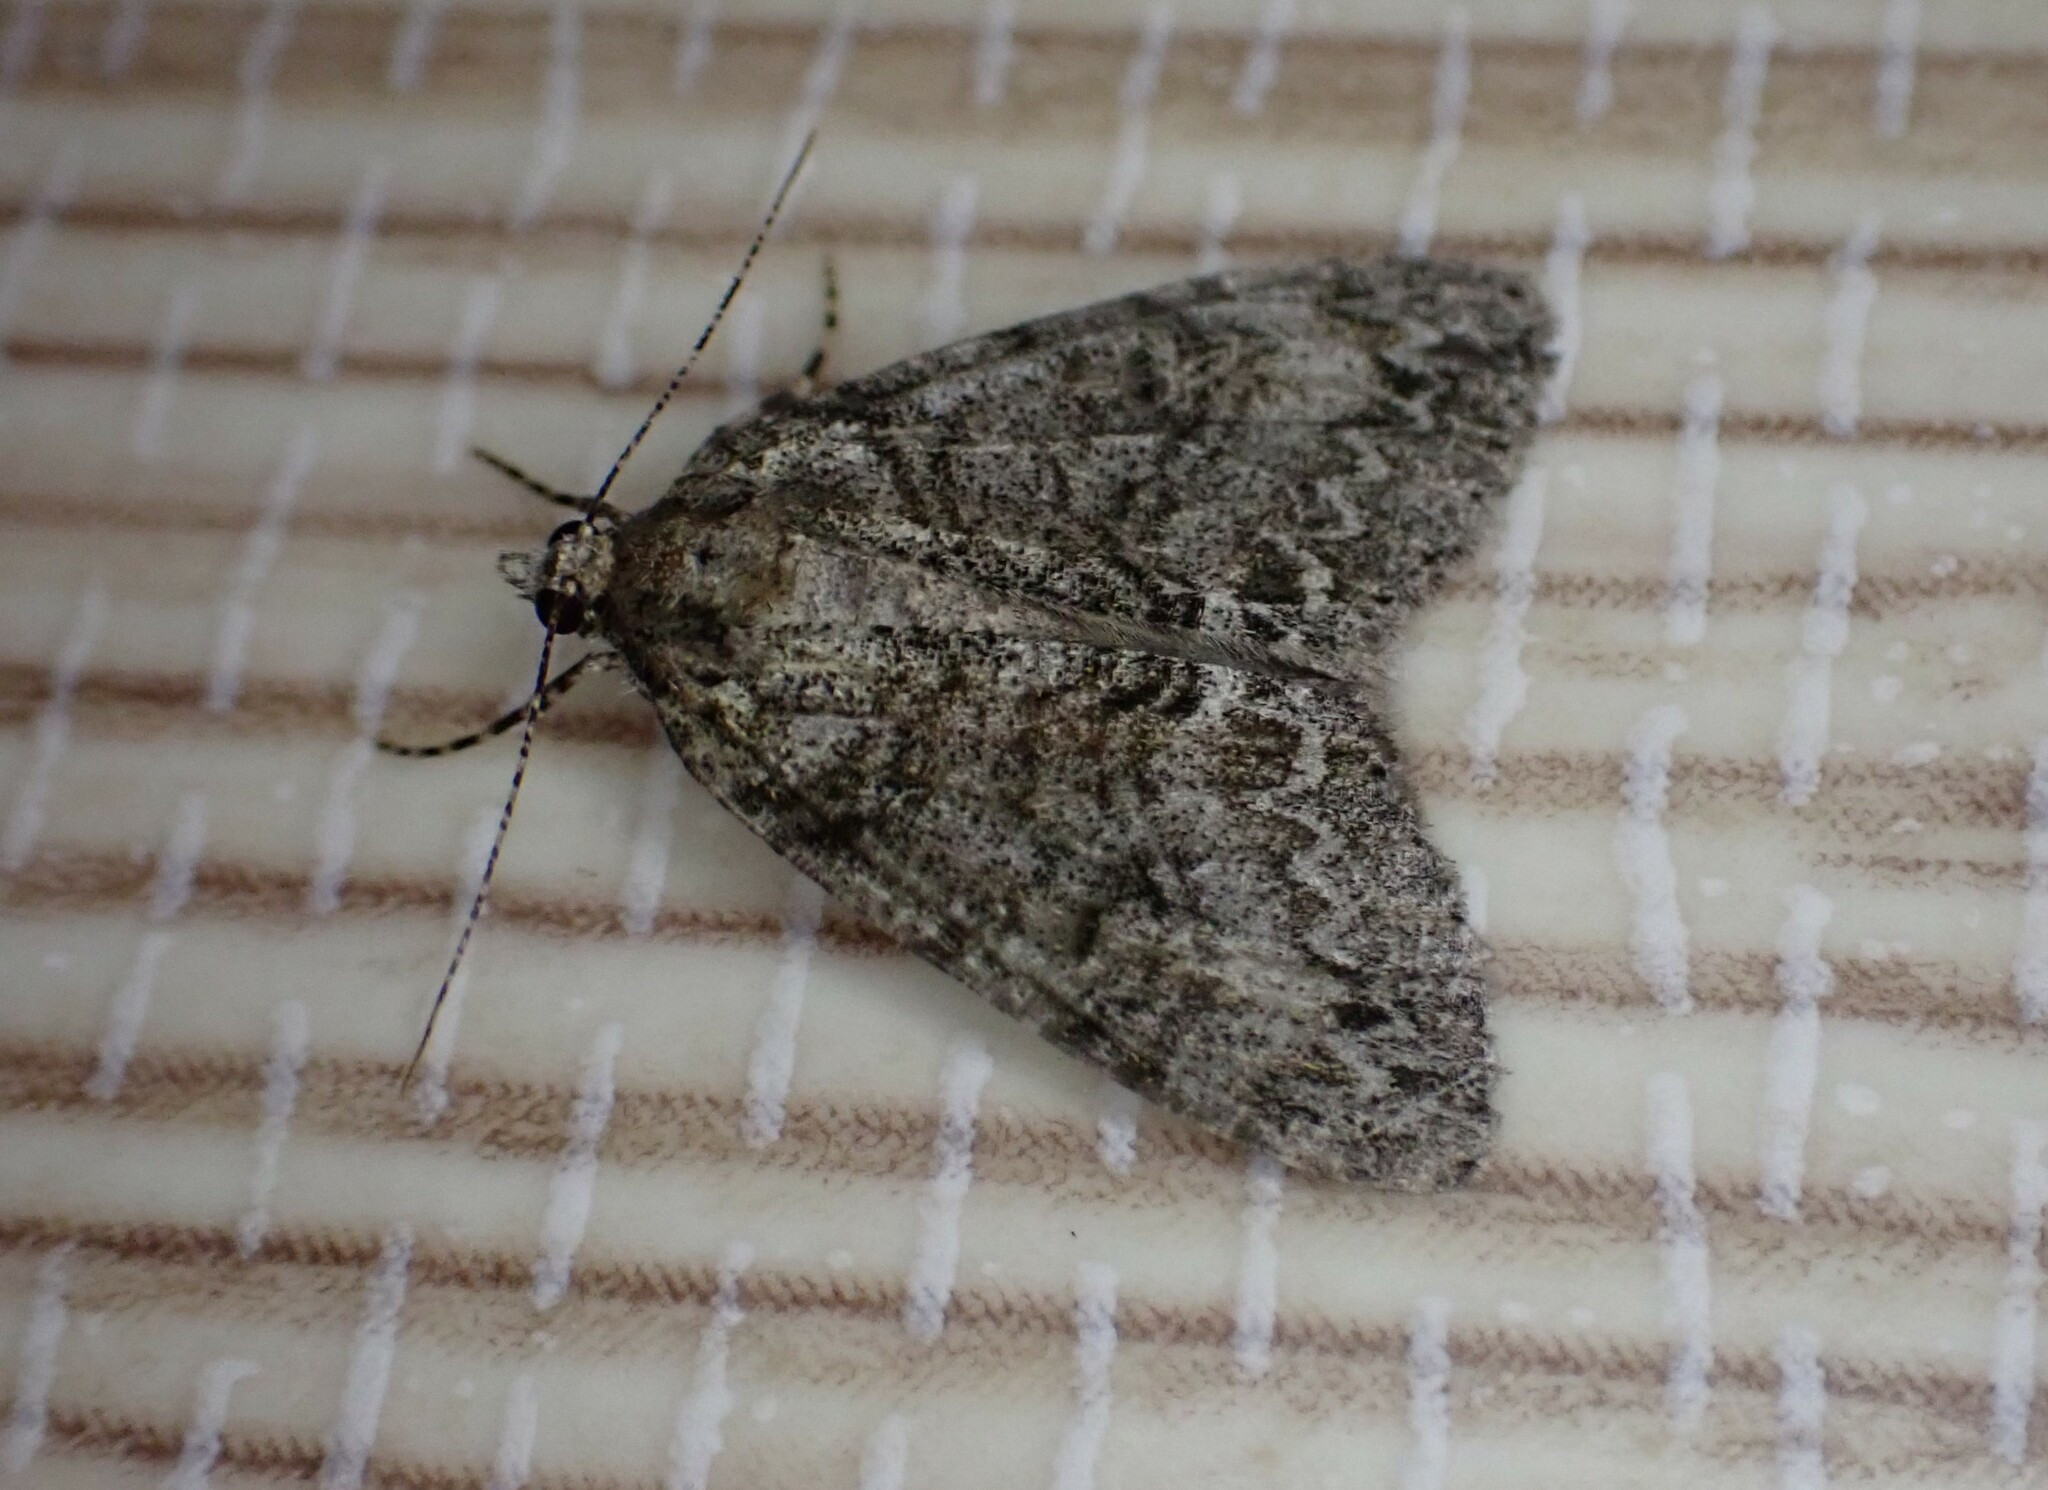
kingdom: Animalia
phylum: Arthropoda
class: Insecta
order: Lepidoptera
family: Geometridae
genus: Pseudocoremia
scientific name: Pseudocoremia suavis
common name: Common forest looper
